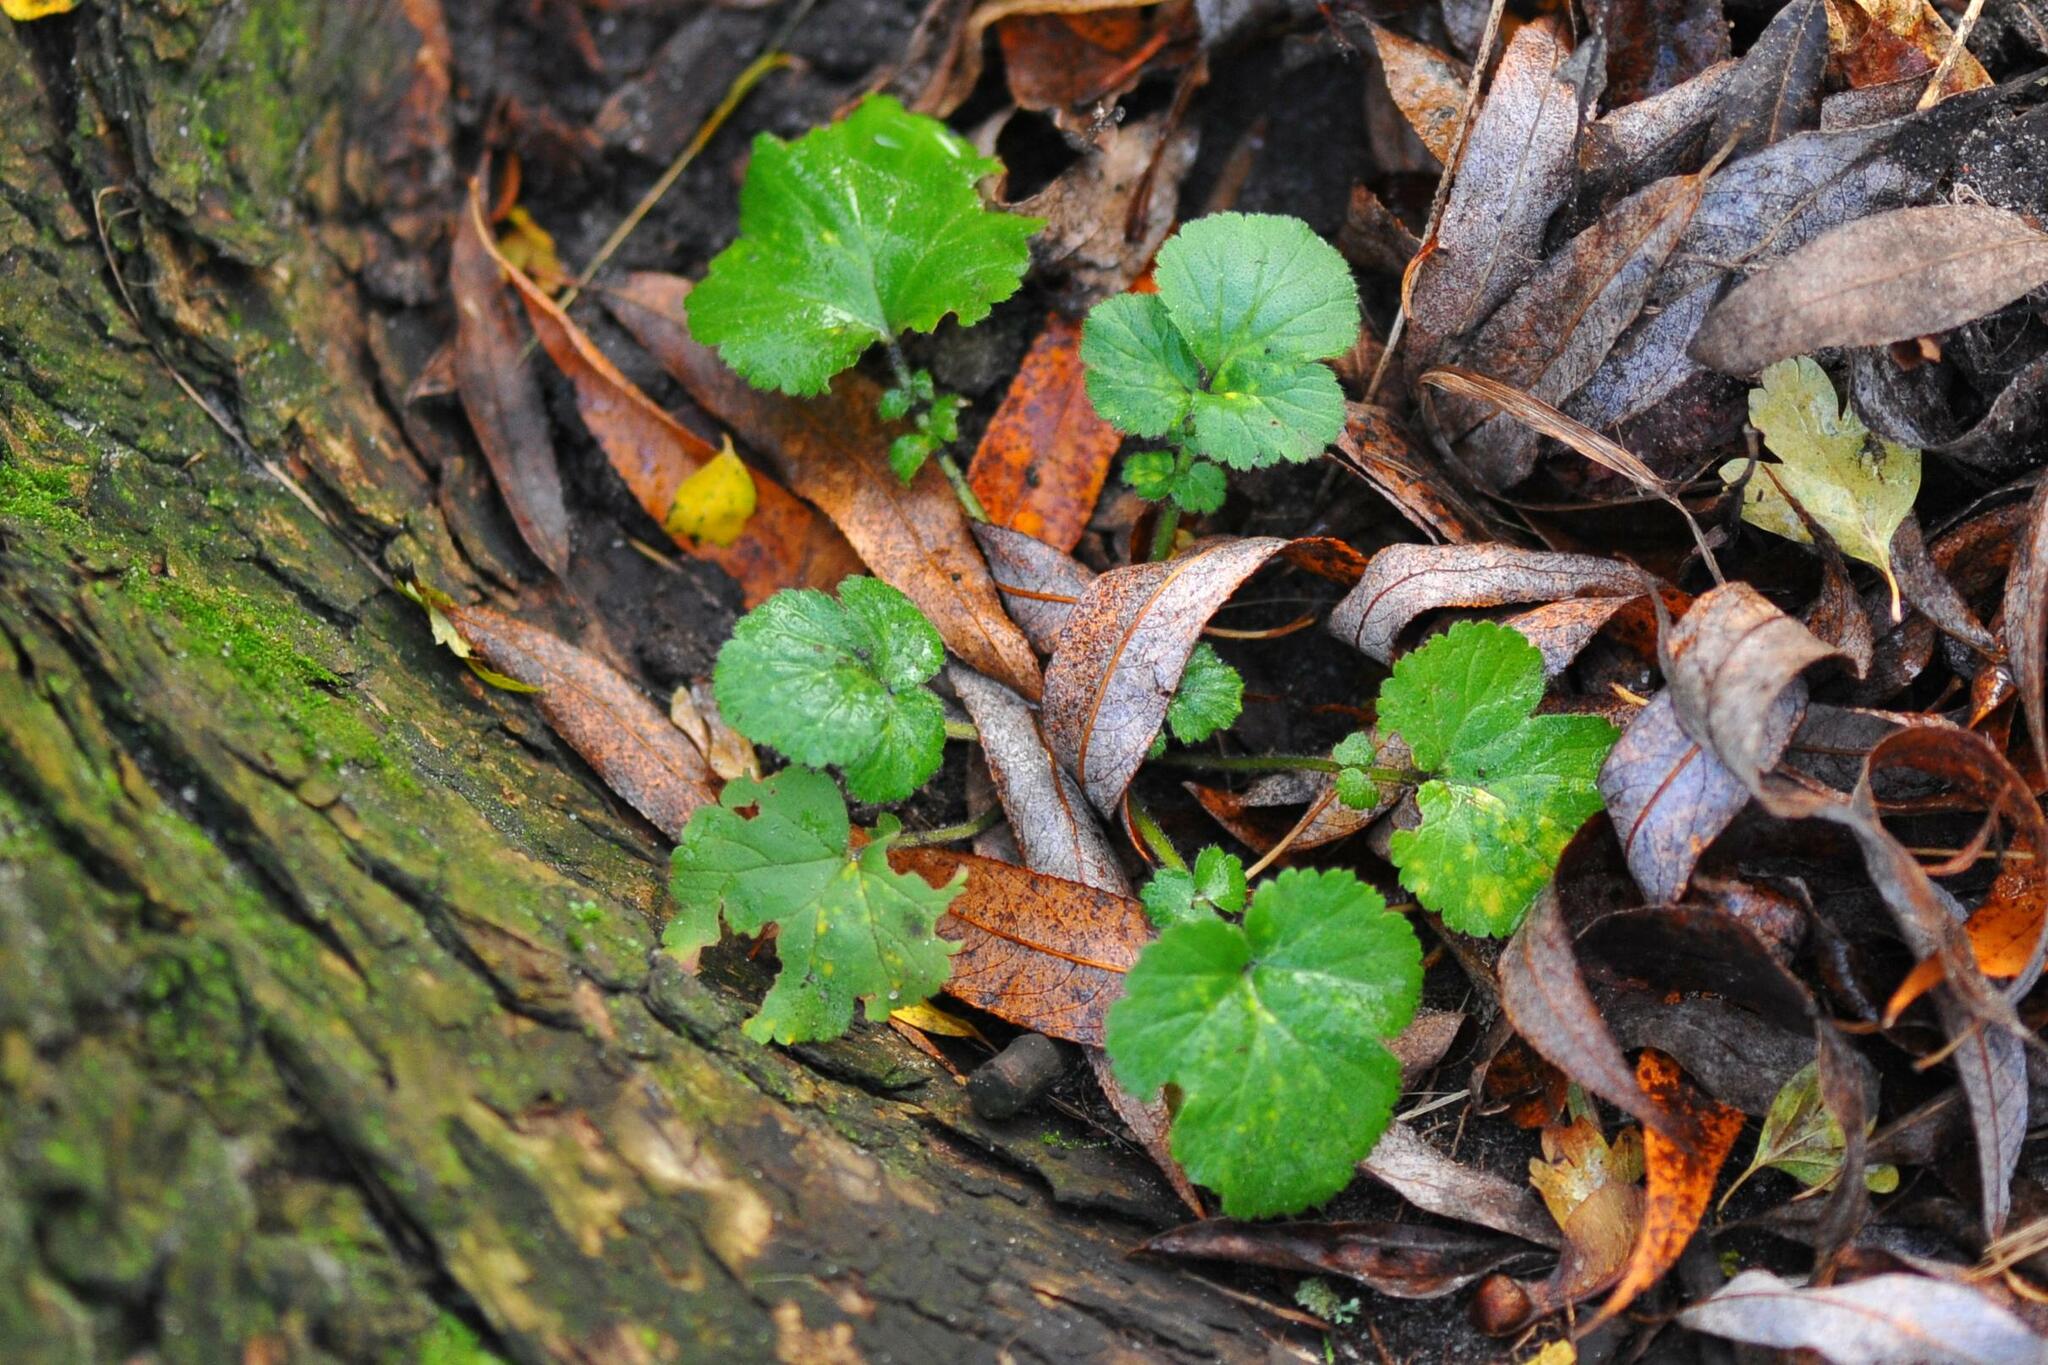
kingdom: Plantae
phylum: Tracheophyta
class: Magnoliopsida
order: Rosales
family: Rosaceae
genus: Geum
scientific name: Geum urbanum
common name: Wood avens
